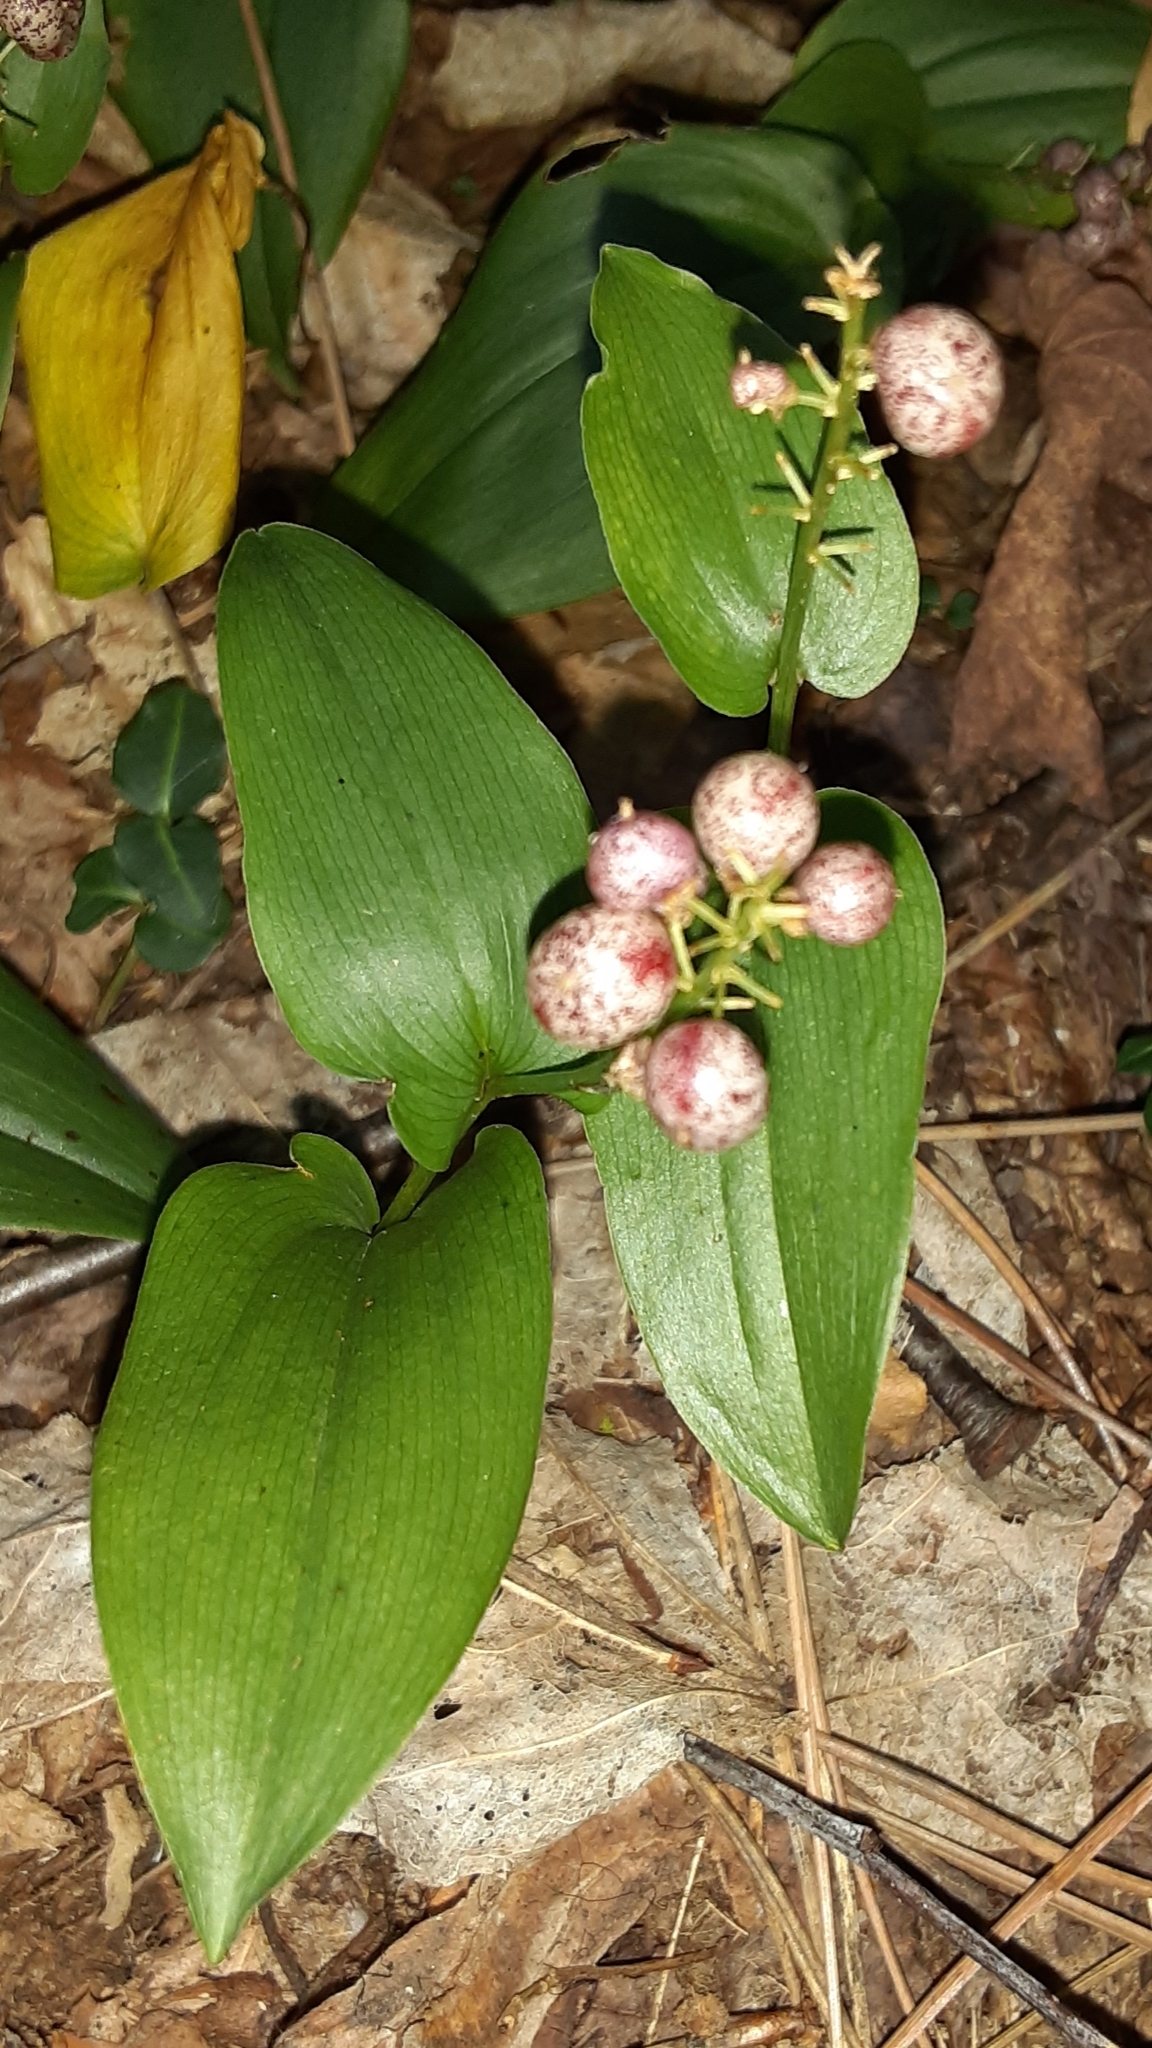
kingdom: Plantae
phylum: Tracheophyta
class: Liliopsida
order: Asparagales
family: Asparagaceae
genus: Maianthemum
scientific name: Maianthemum canadense
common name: False lily-of-the-valley
